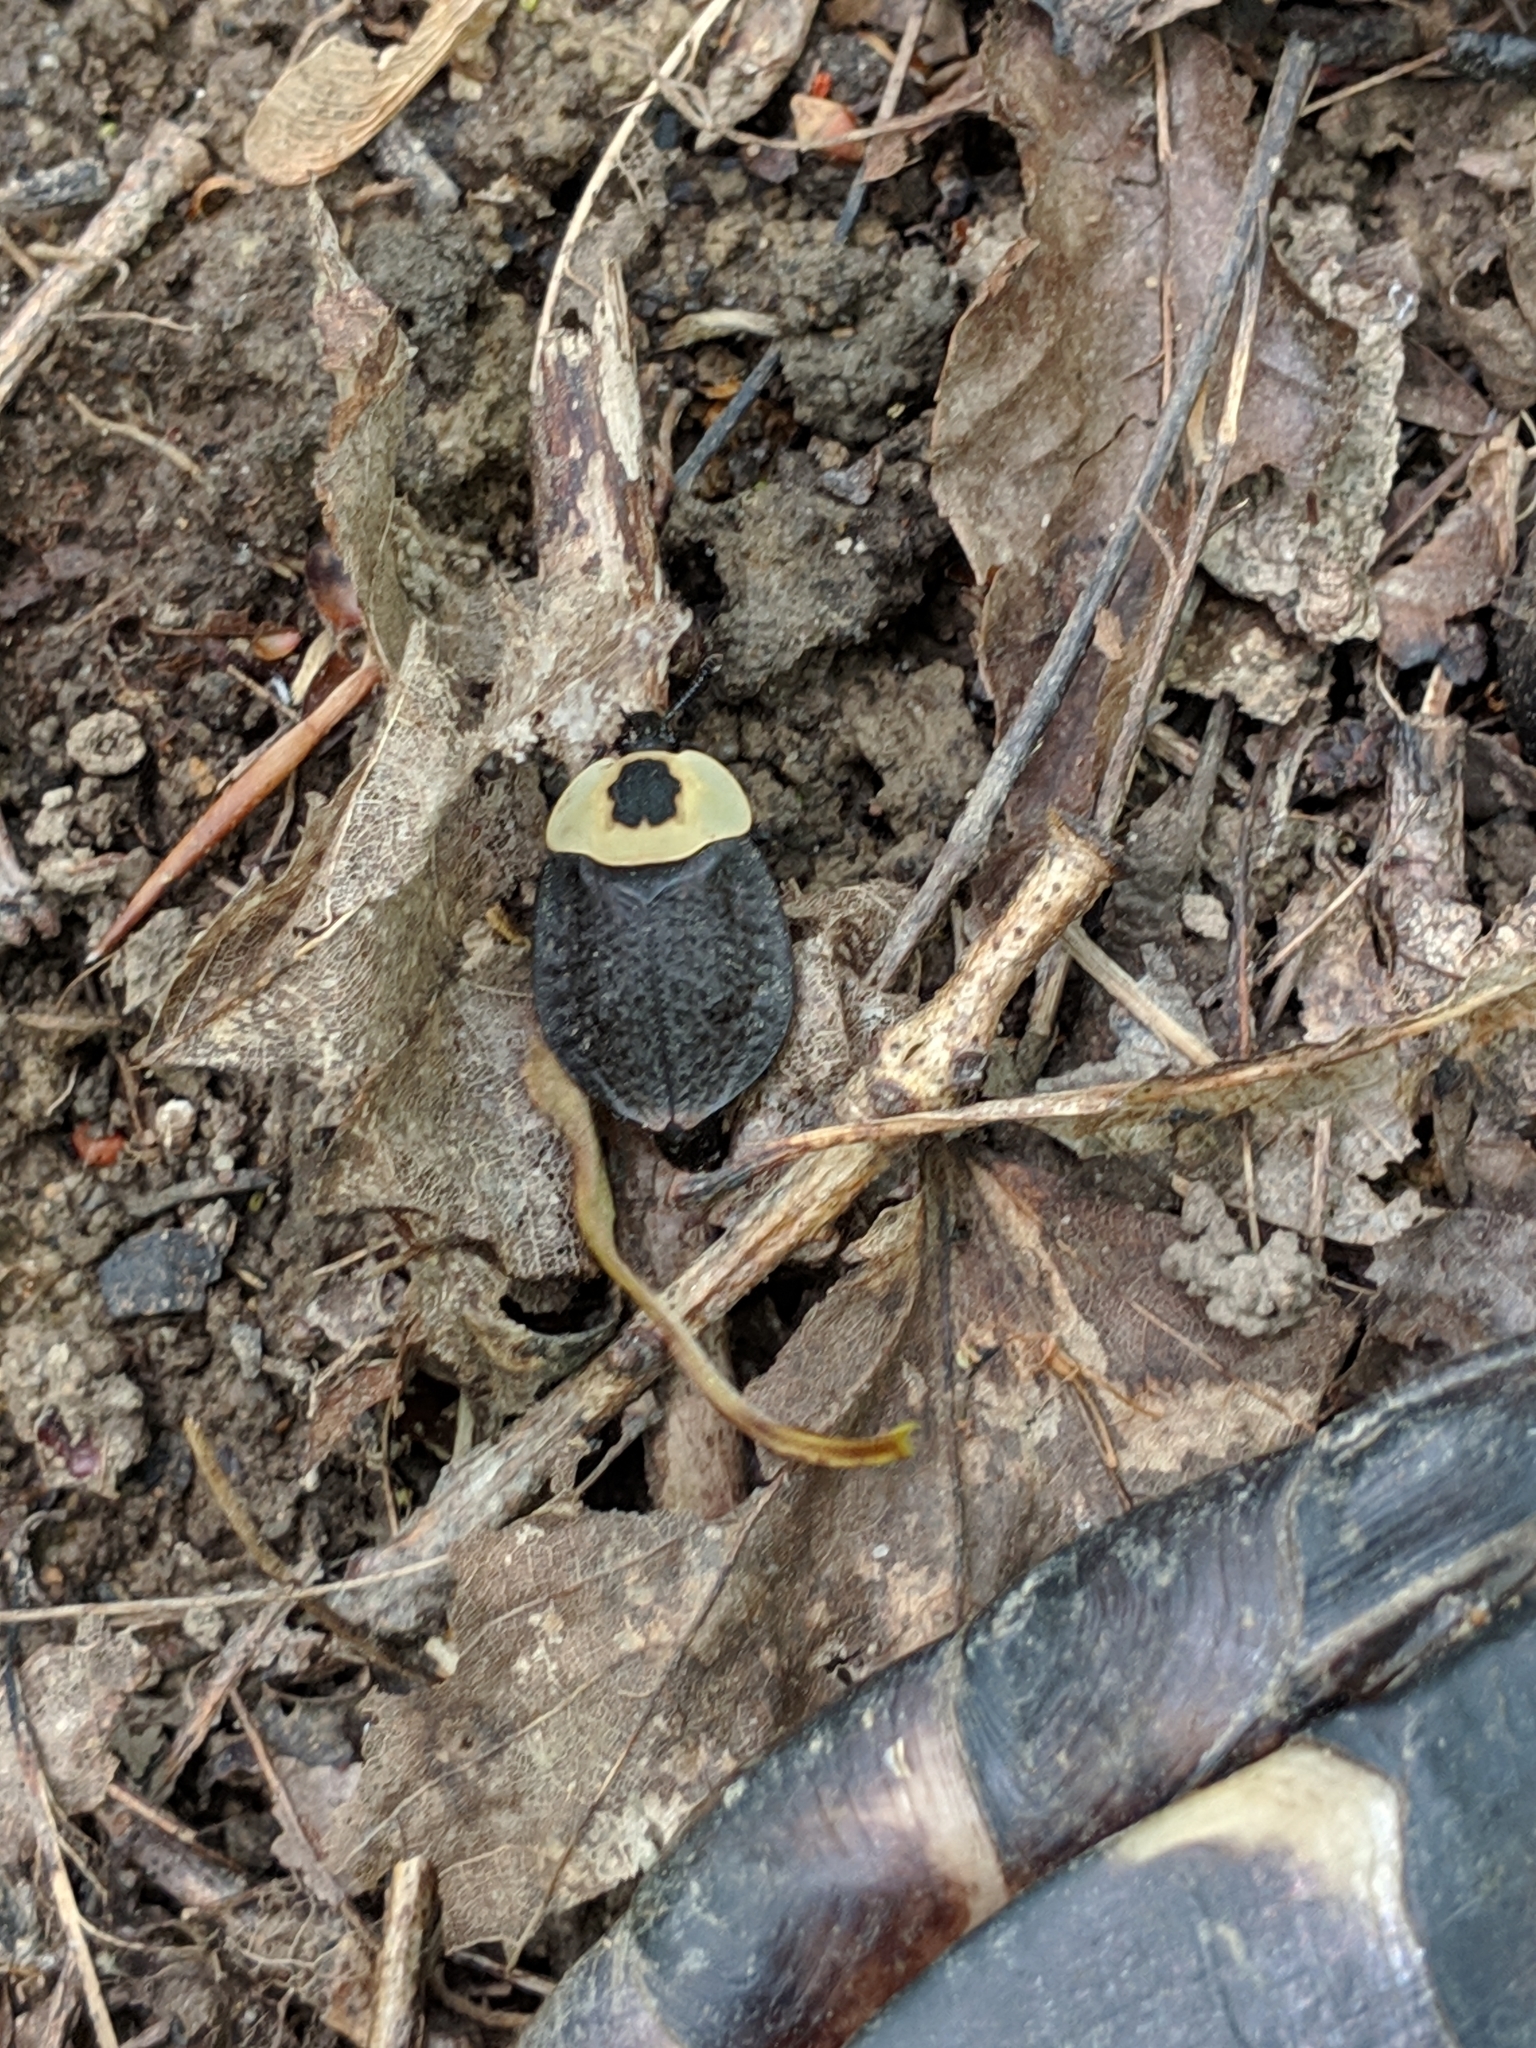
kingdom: Animalia
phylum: Arthropoda
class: Insecta
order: Coleoptera
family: Staphylinidae
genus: Necrophila
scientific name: Necrophila americana
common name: American carrion beetle
